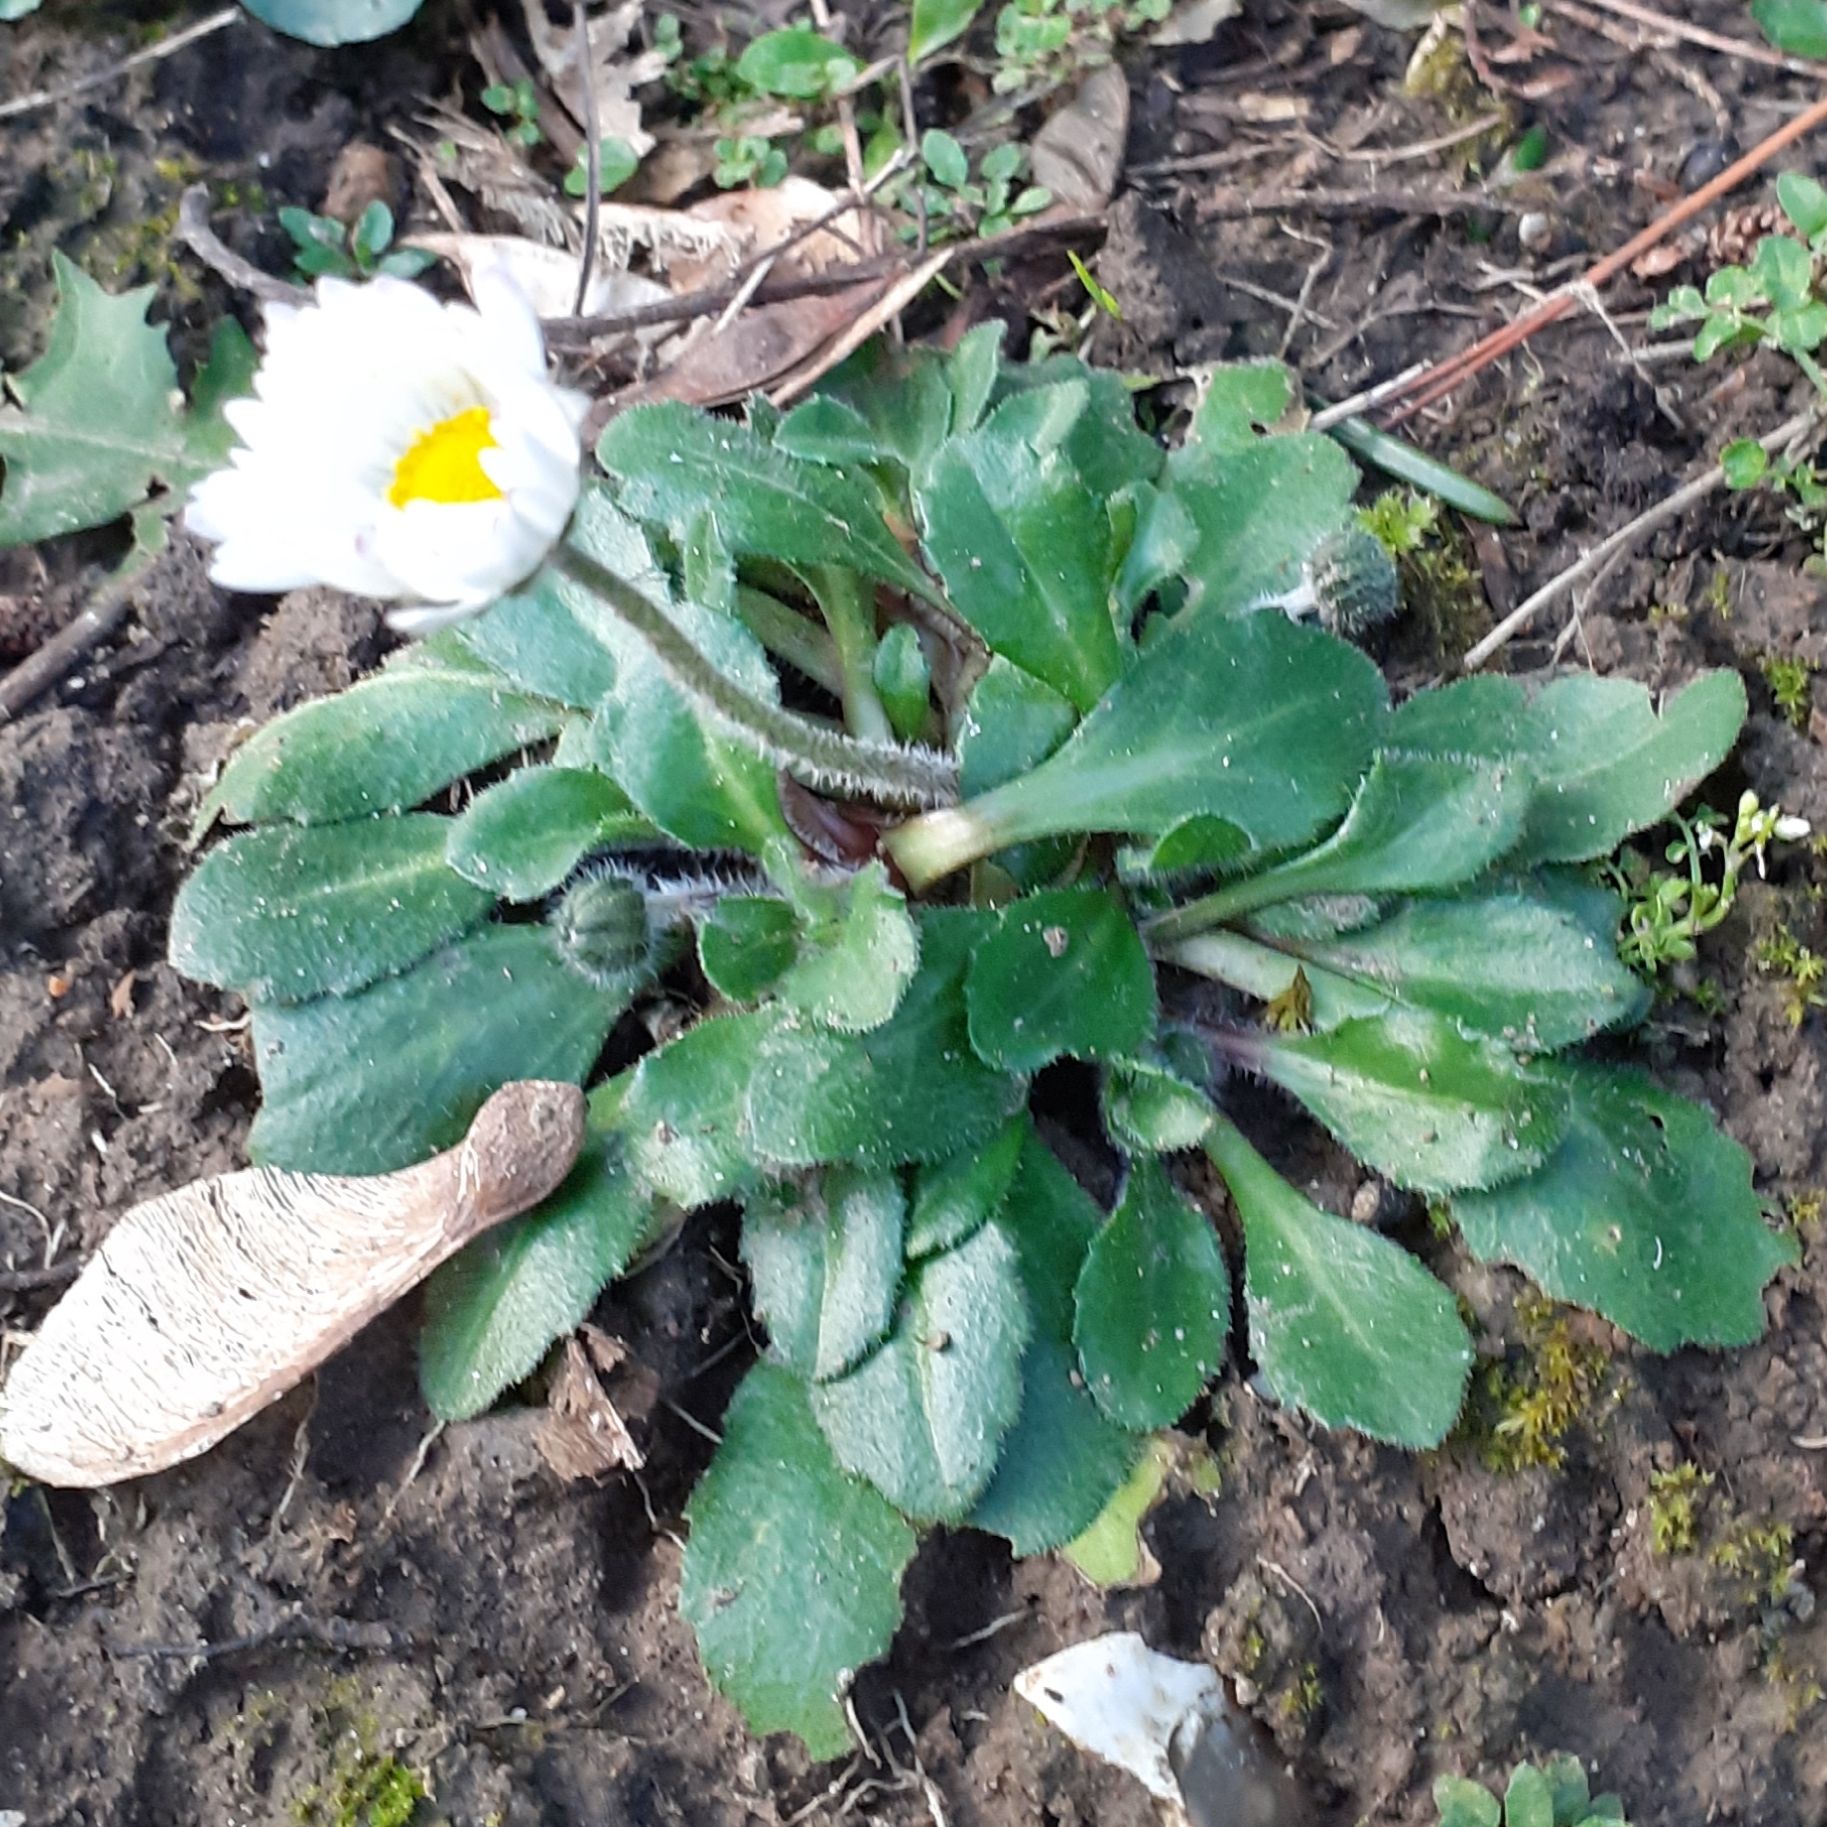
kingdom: Plantae
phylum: Tracheophyta
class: Magnoliopsida
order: Asterales
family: Asteraceae
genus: Bellis
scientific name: Bellis perennis
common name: Lawndaisy
